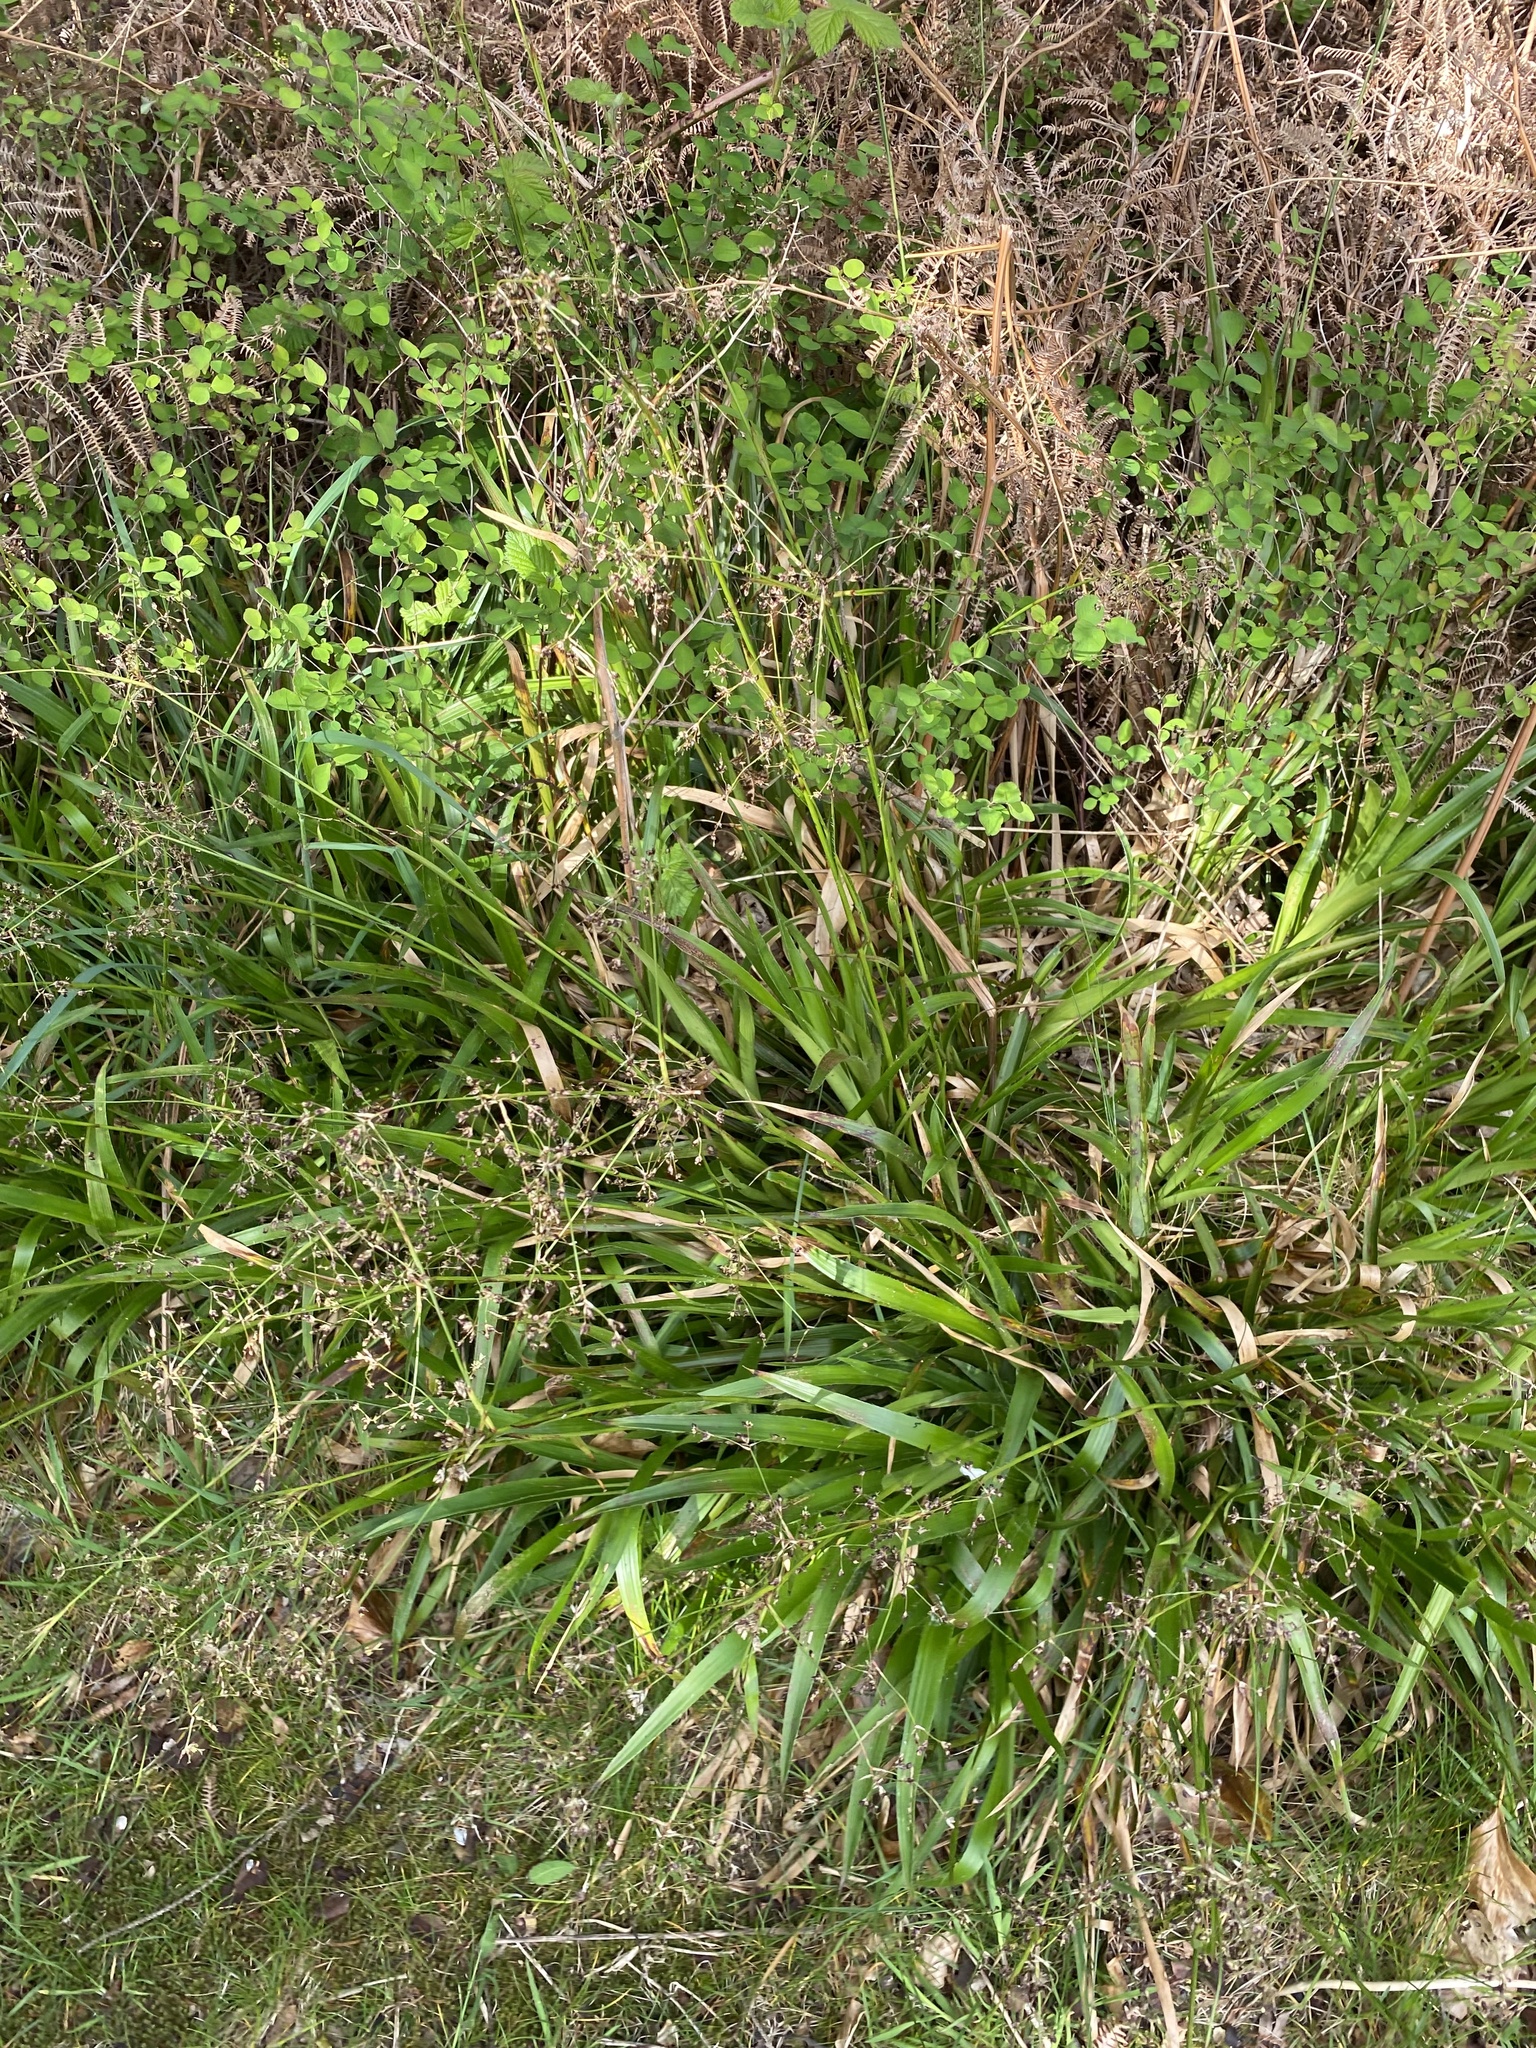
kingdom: Plantae
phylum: Tracheophyta
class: Liliopsida
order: Poales
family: Juncaceae
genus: Luzula
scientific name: Luzula sylvatica
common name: Great wood-rush
